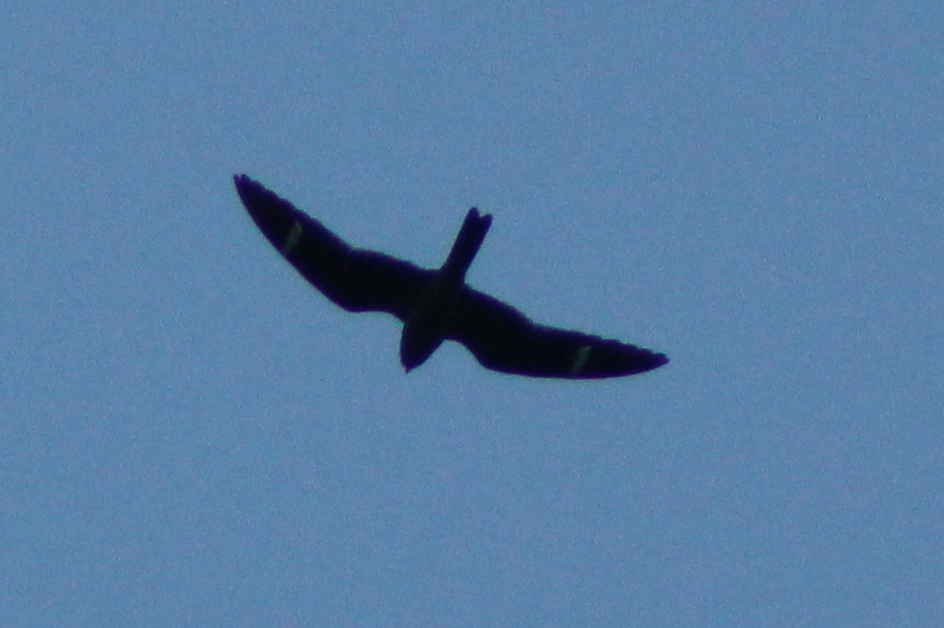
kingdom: Animalia
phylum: Chordata
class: Aves
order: Caprimulgiformes
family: Caprimulgidae
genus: Chordeiles
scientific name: Chordeiles minor
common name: Common nighthawk
